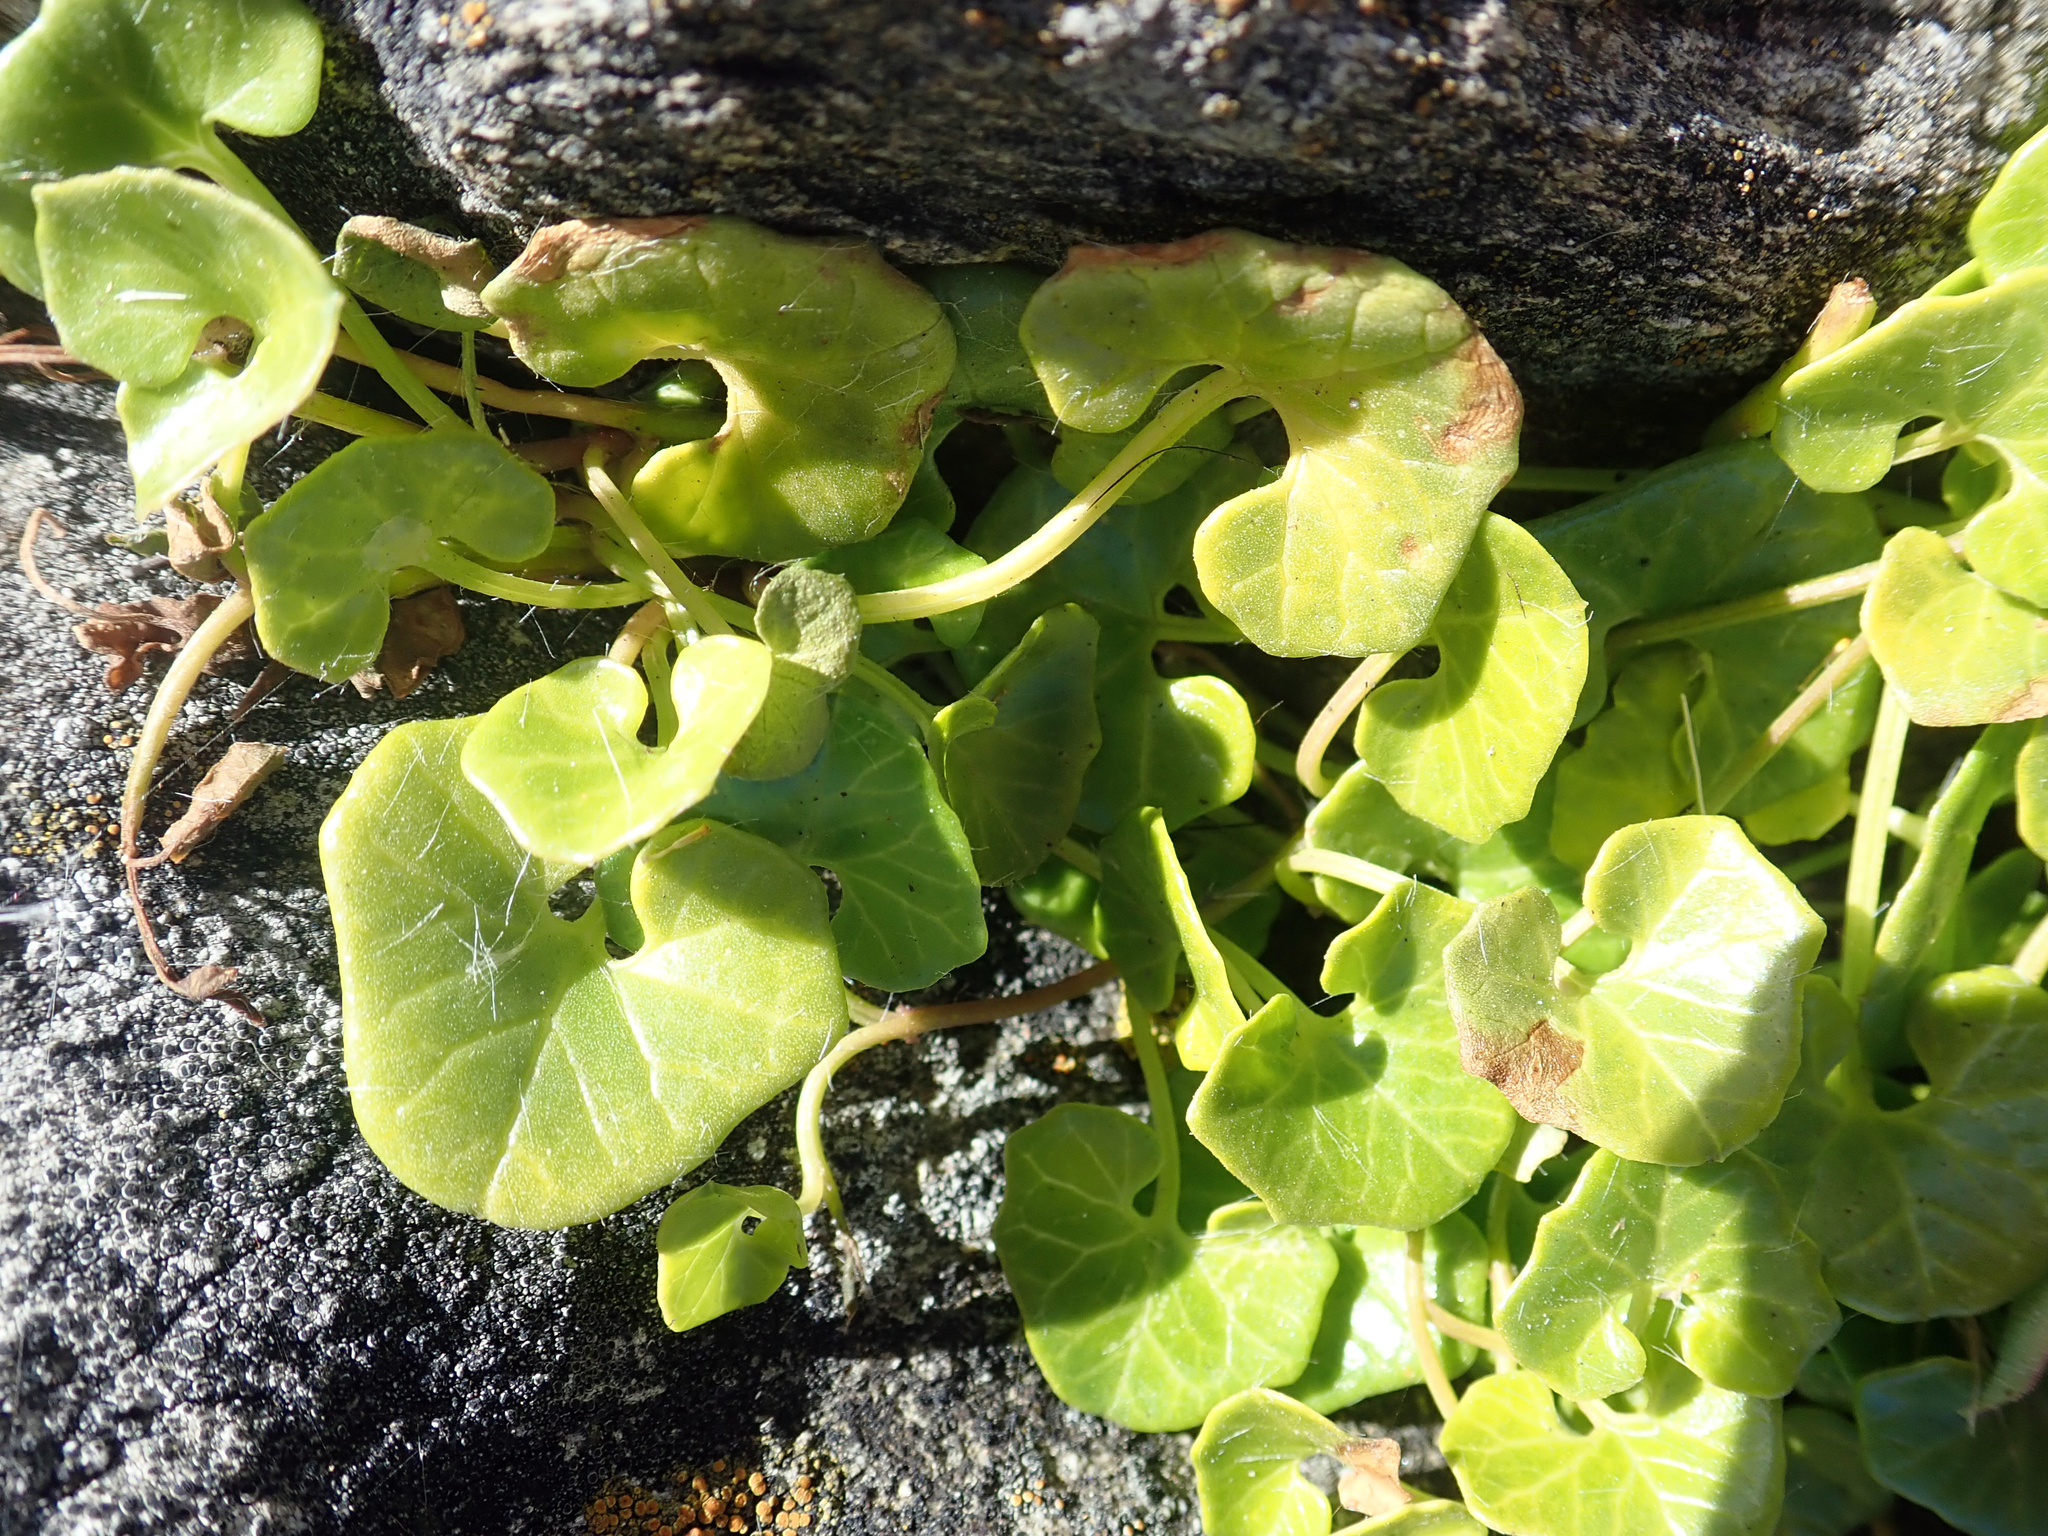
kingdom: Plantae
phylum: Tracheophyta
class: Magnoliopsida
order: Solanales
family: Convolvulaceae
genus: Calystegia
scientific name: Calystegia soldanella
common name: Sea bindweed
